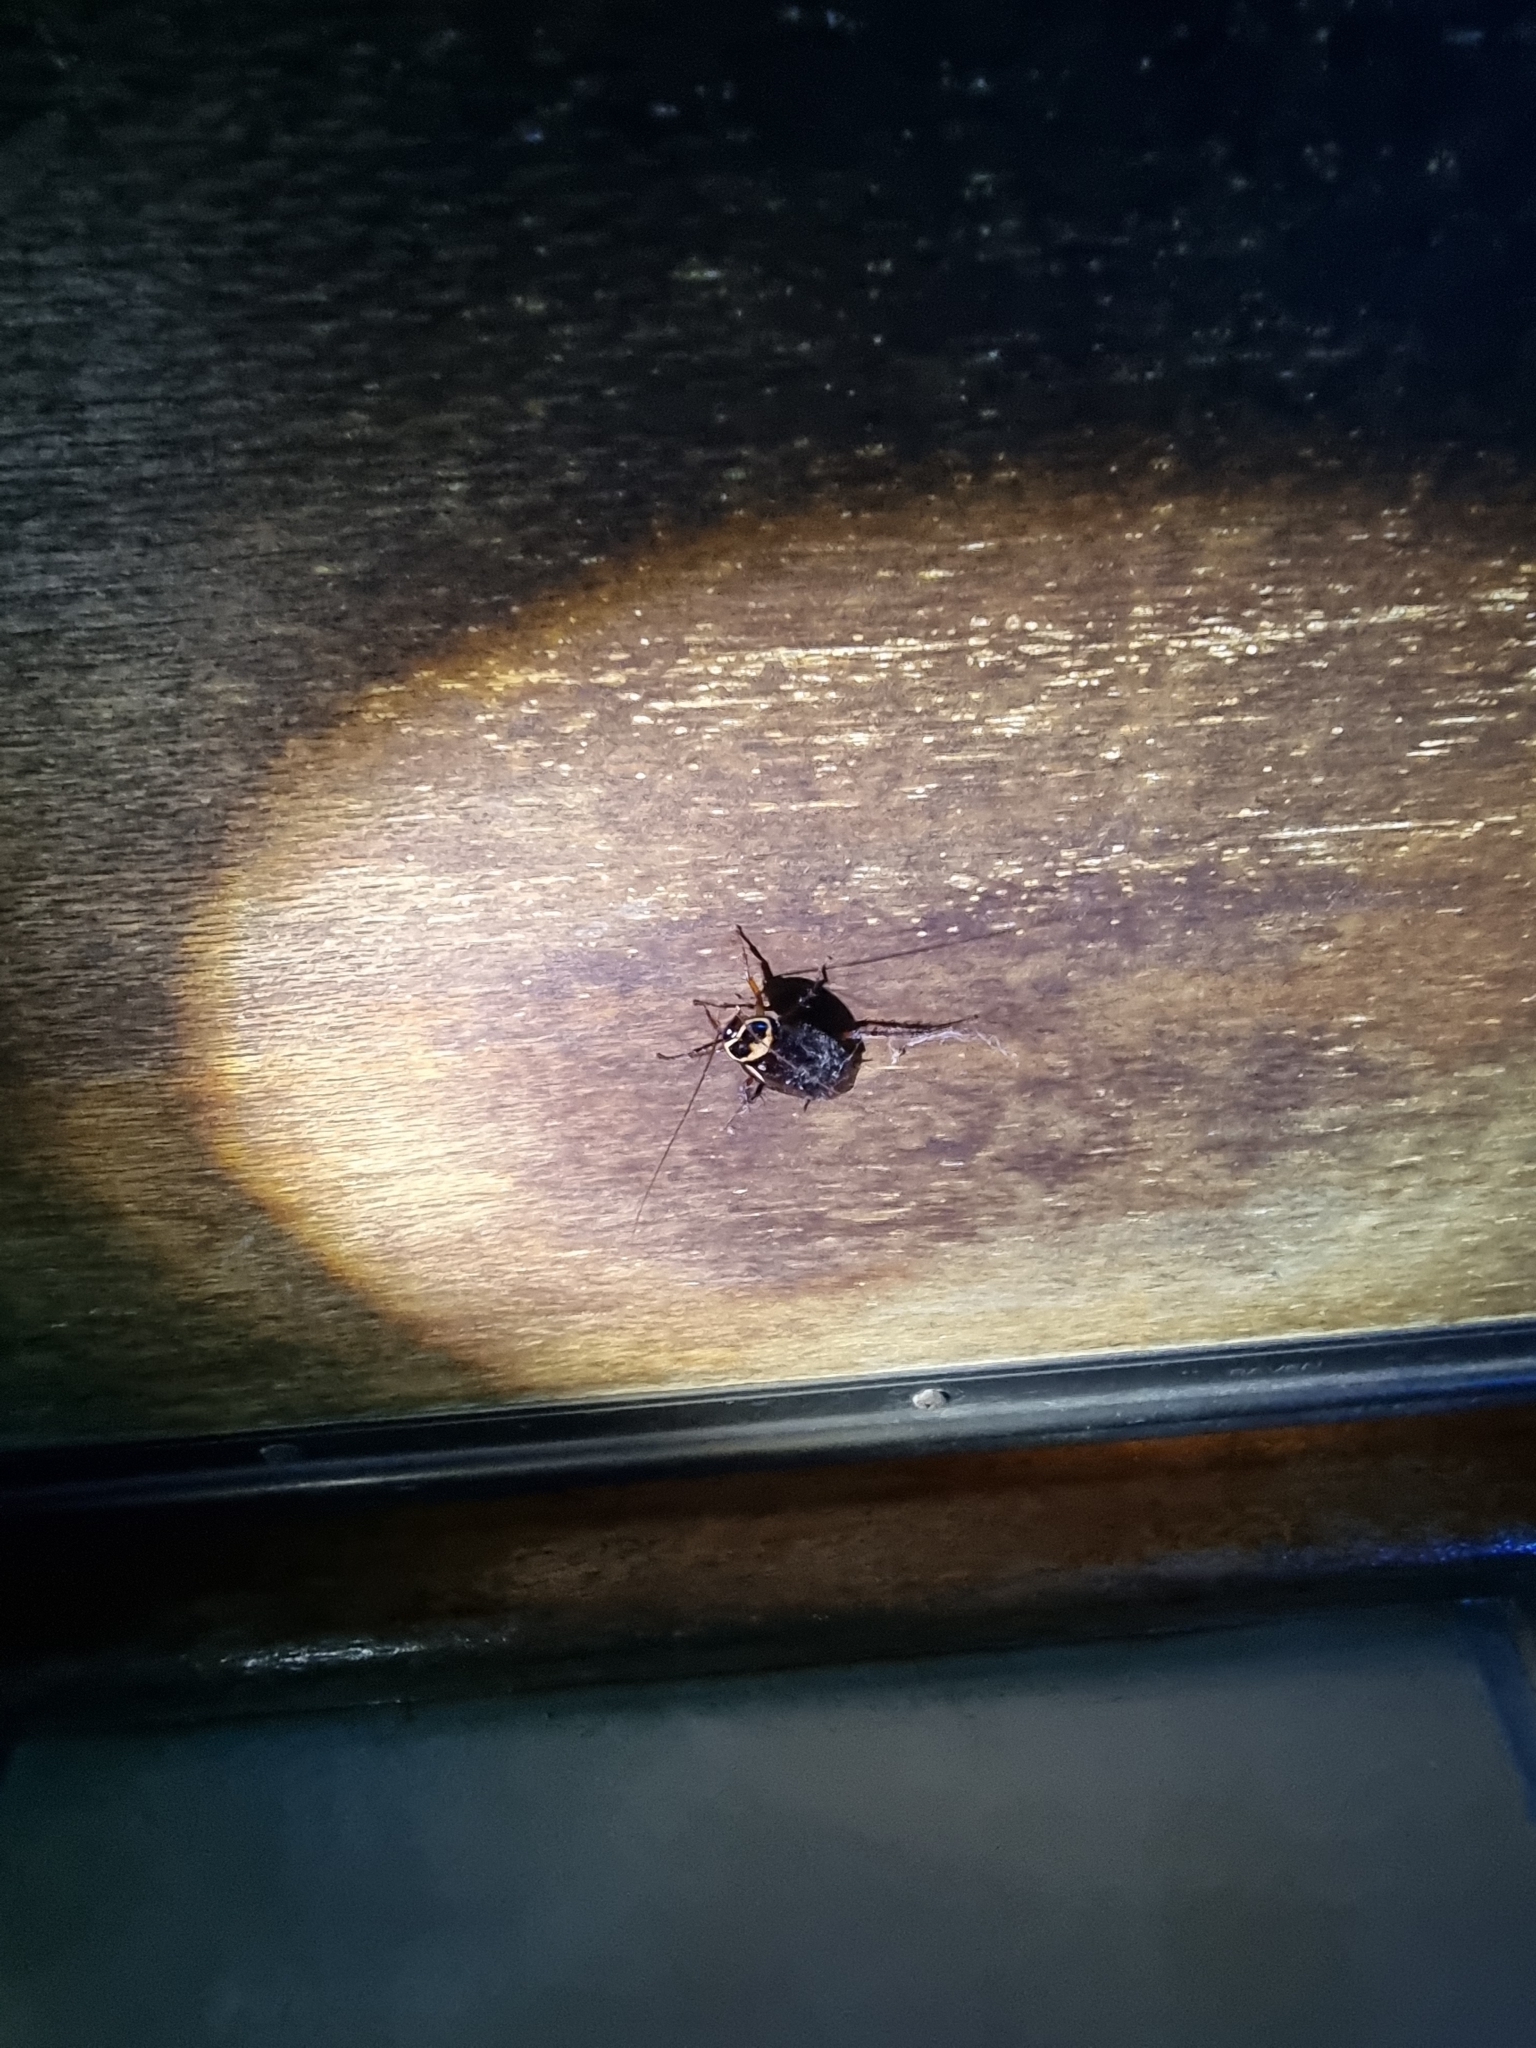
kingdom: Animalia
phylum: Arthropoda
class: Insecta
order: Blattodea
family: Blattidae
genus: Periplaneta
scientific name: Periplaneta australasiae
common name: Australian cockroach
